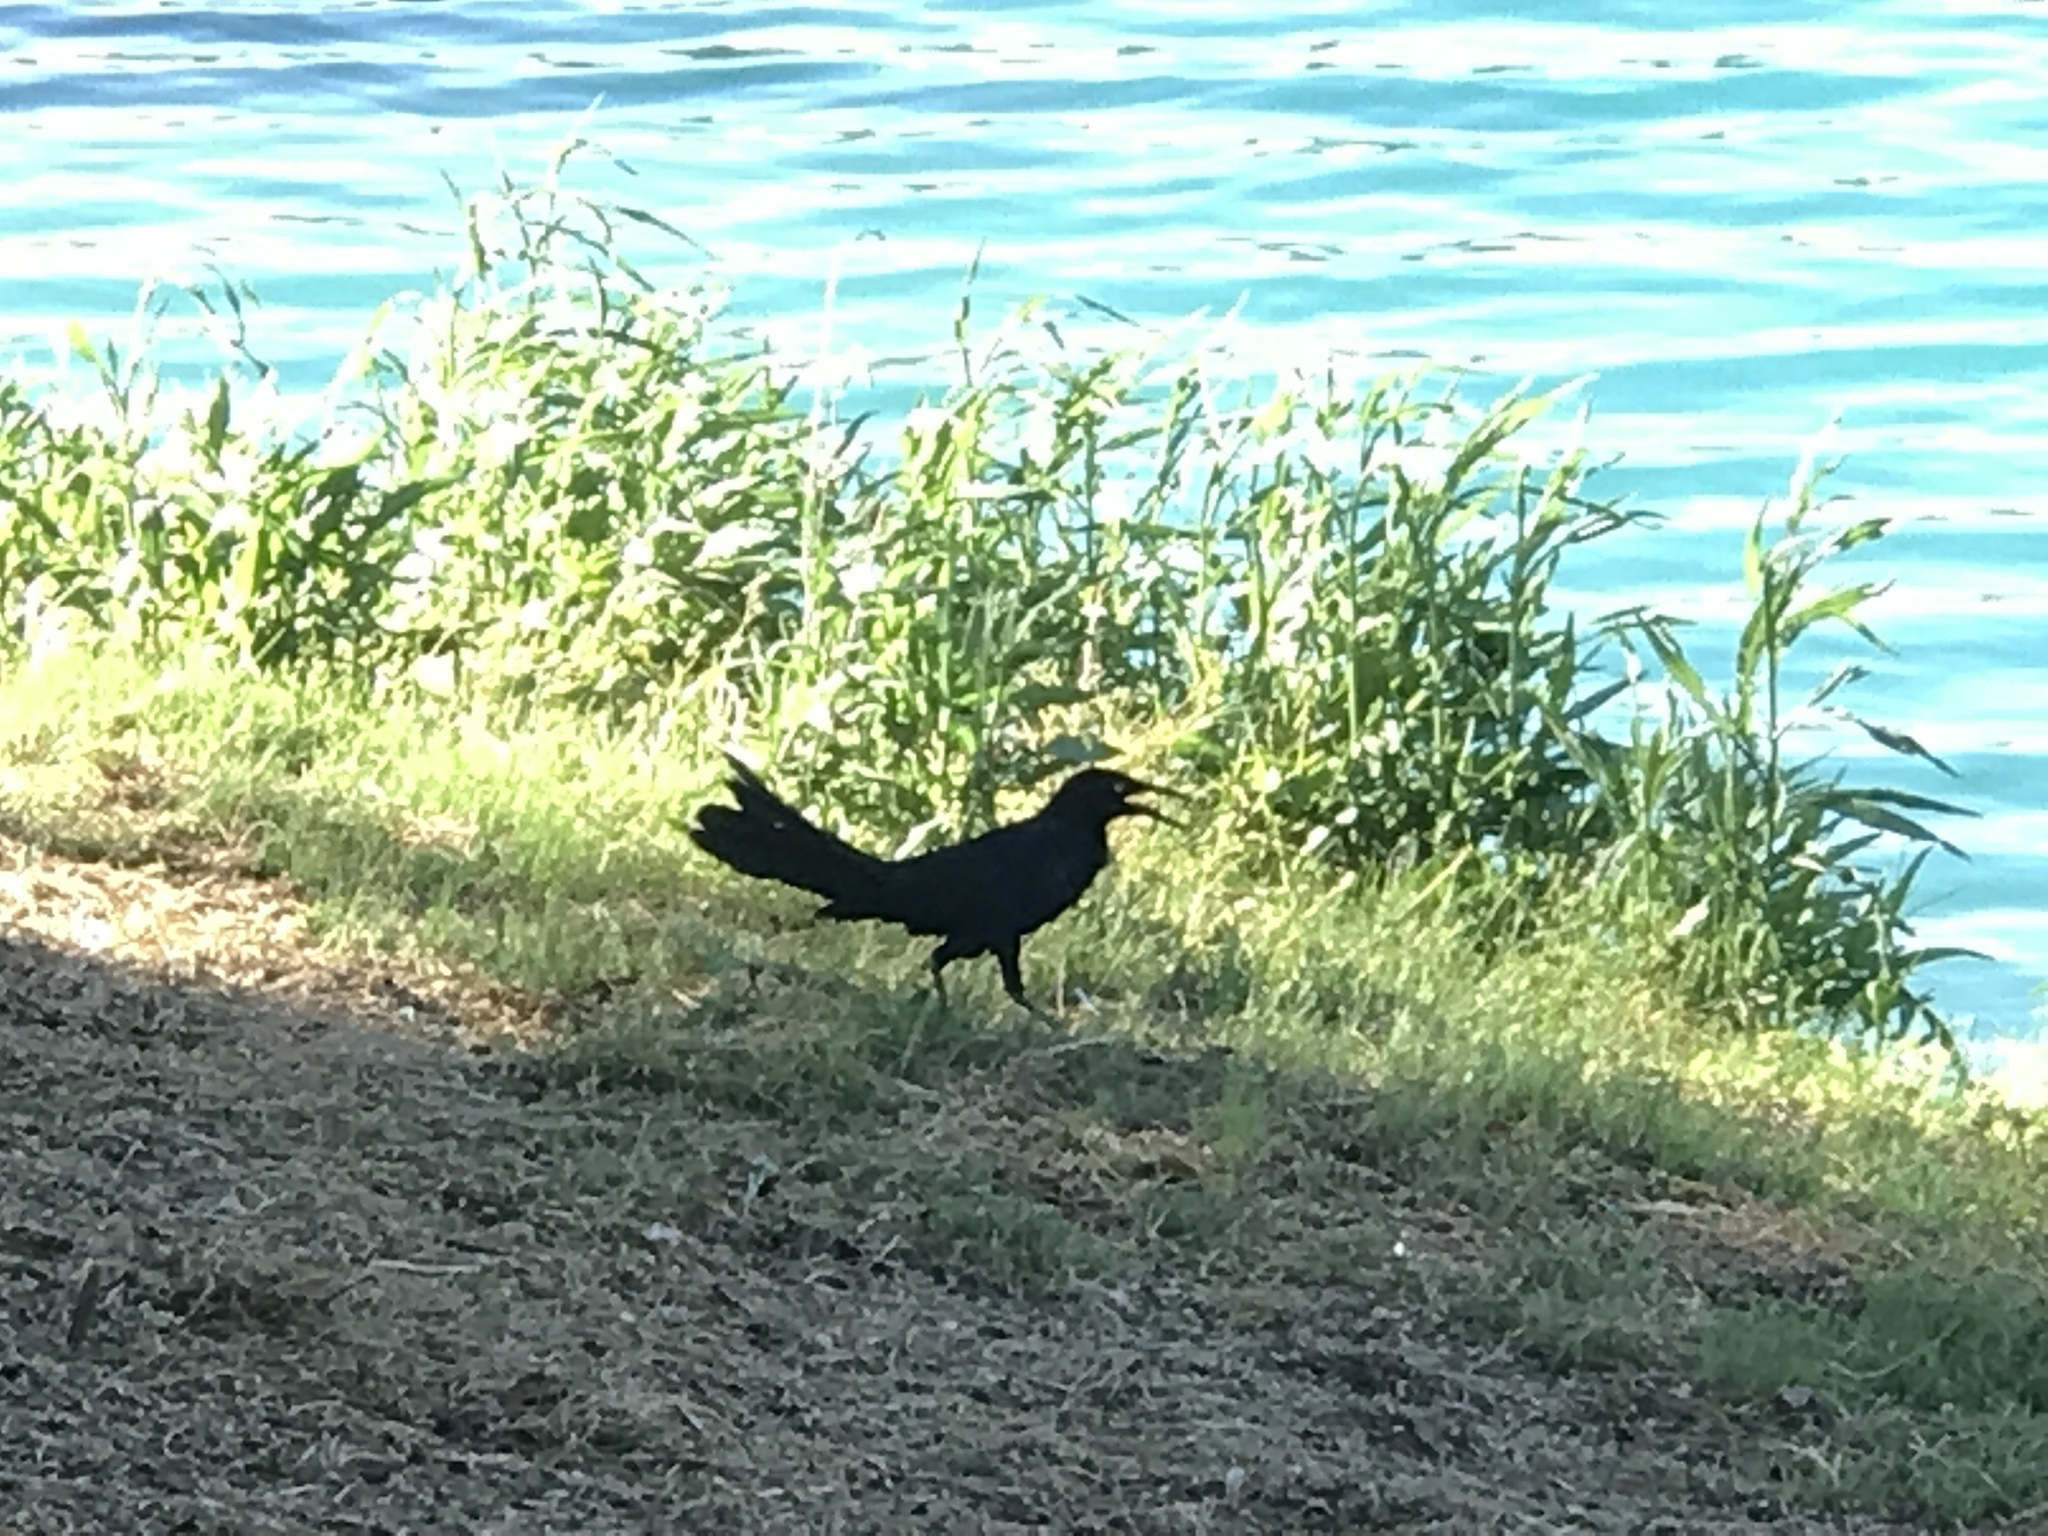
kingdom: Animalia
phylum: Chordata
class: Aves
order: Passeriformes
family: Icteridae
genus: Quiscalus
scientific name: Quiscalus mexicanus
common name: Great-tailed grackle
